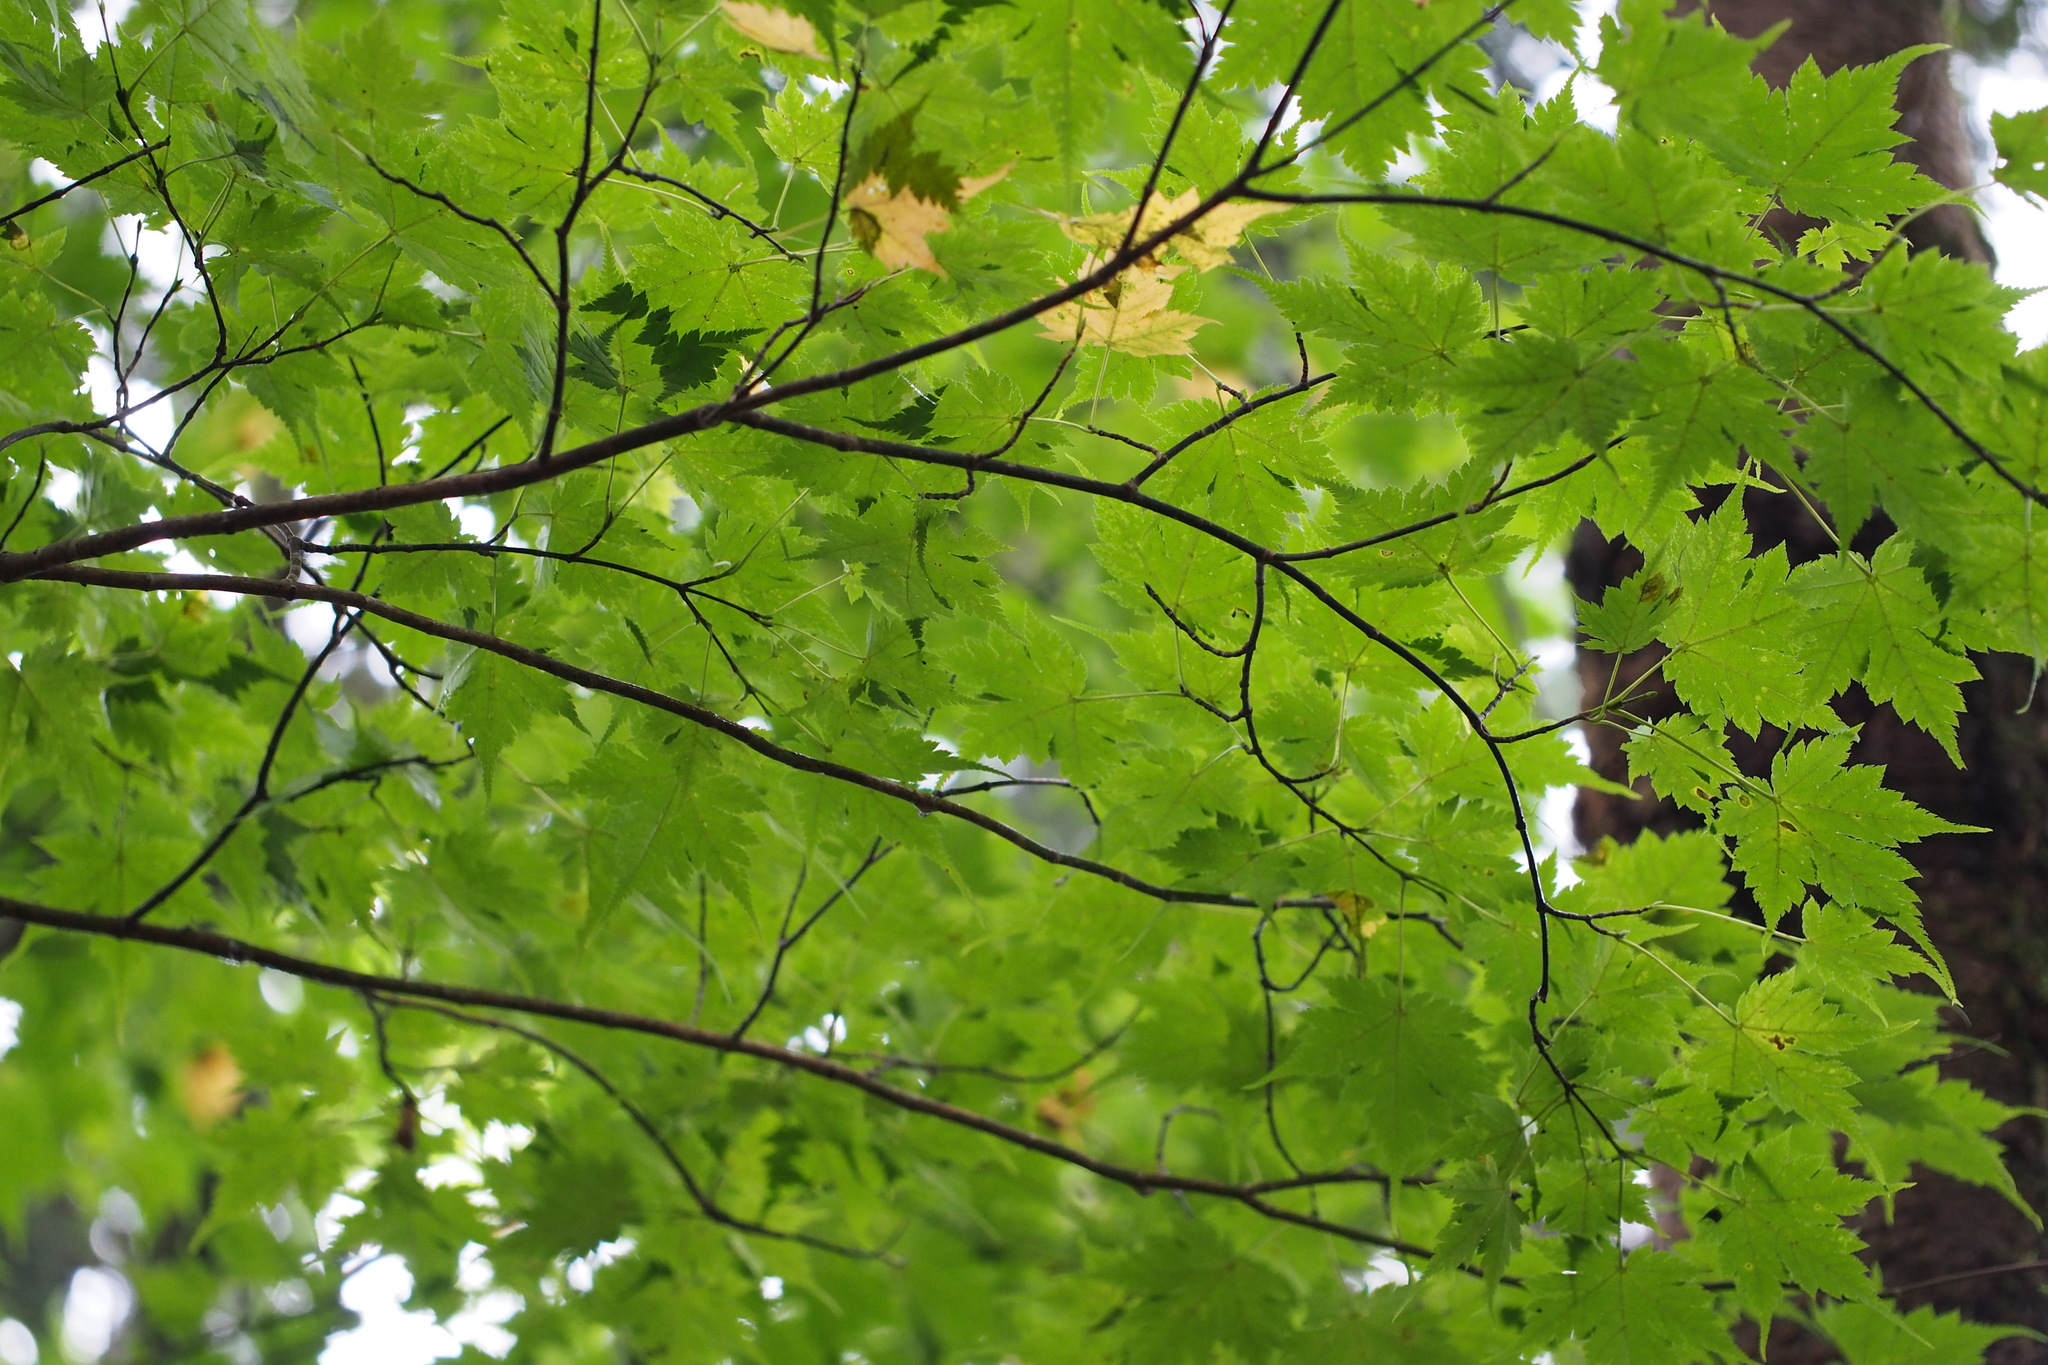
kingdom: Plantae
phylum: Tracheophyta
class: Magnoliopsida
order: Sapindales
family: Sapindaceae
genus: Acer
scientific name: Acer micranthum
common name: Komine maple
